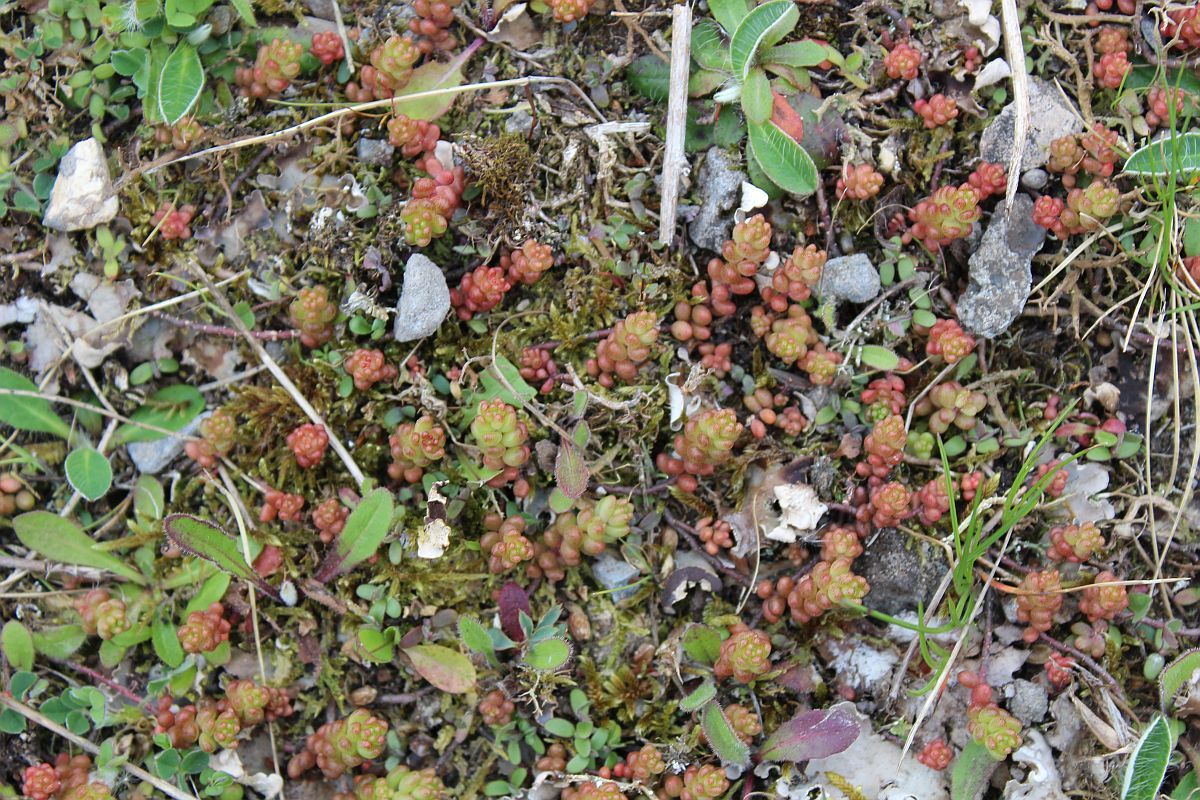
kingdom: Plantae
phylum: Tracheophyta
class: Magnoliopsida
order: Saxifragales
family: Crassulaceae
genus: Sedum
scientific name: Sedum album
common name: White stonecrop
